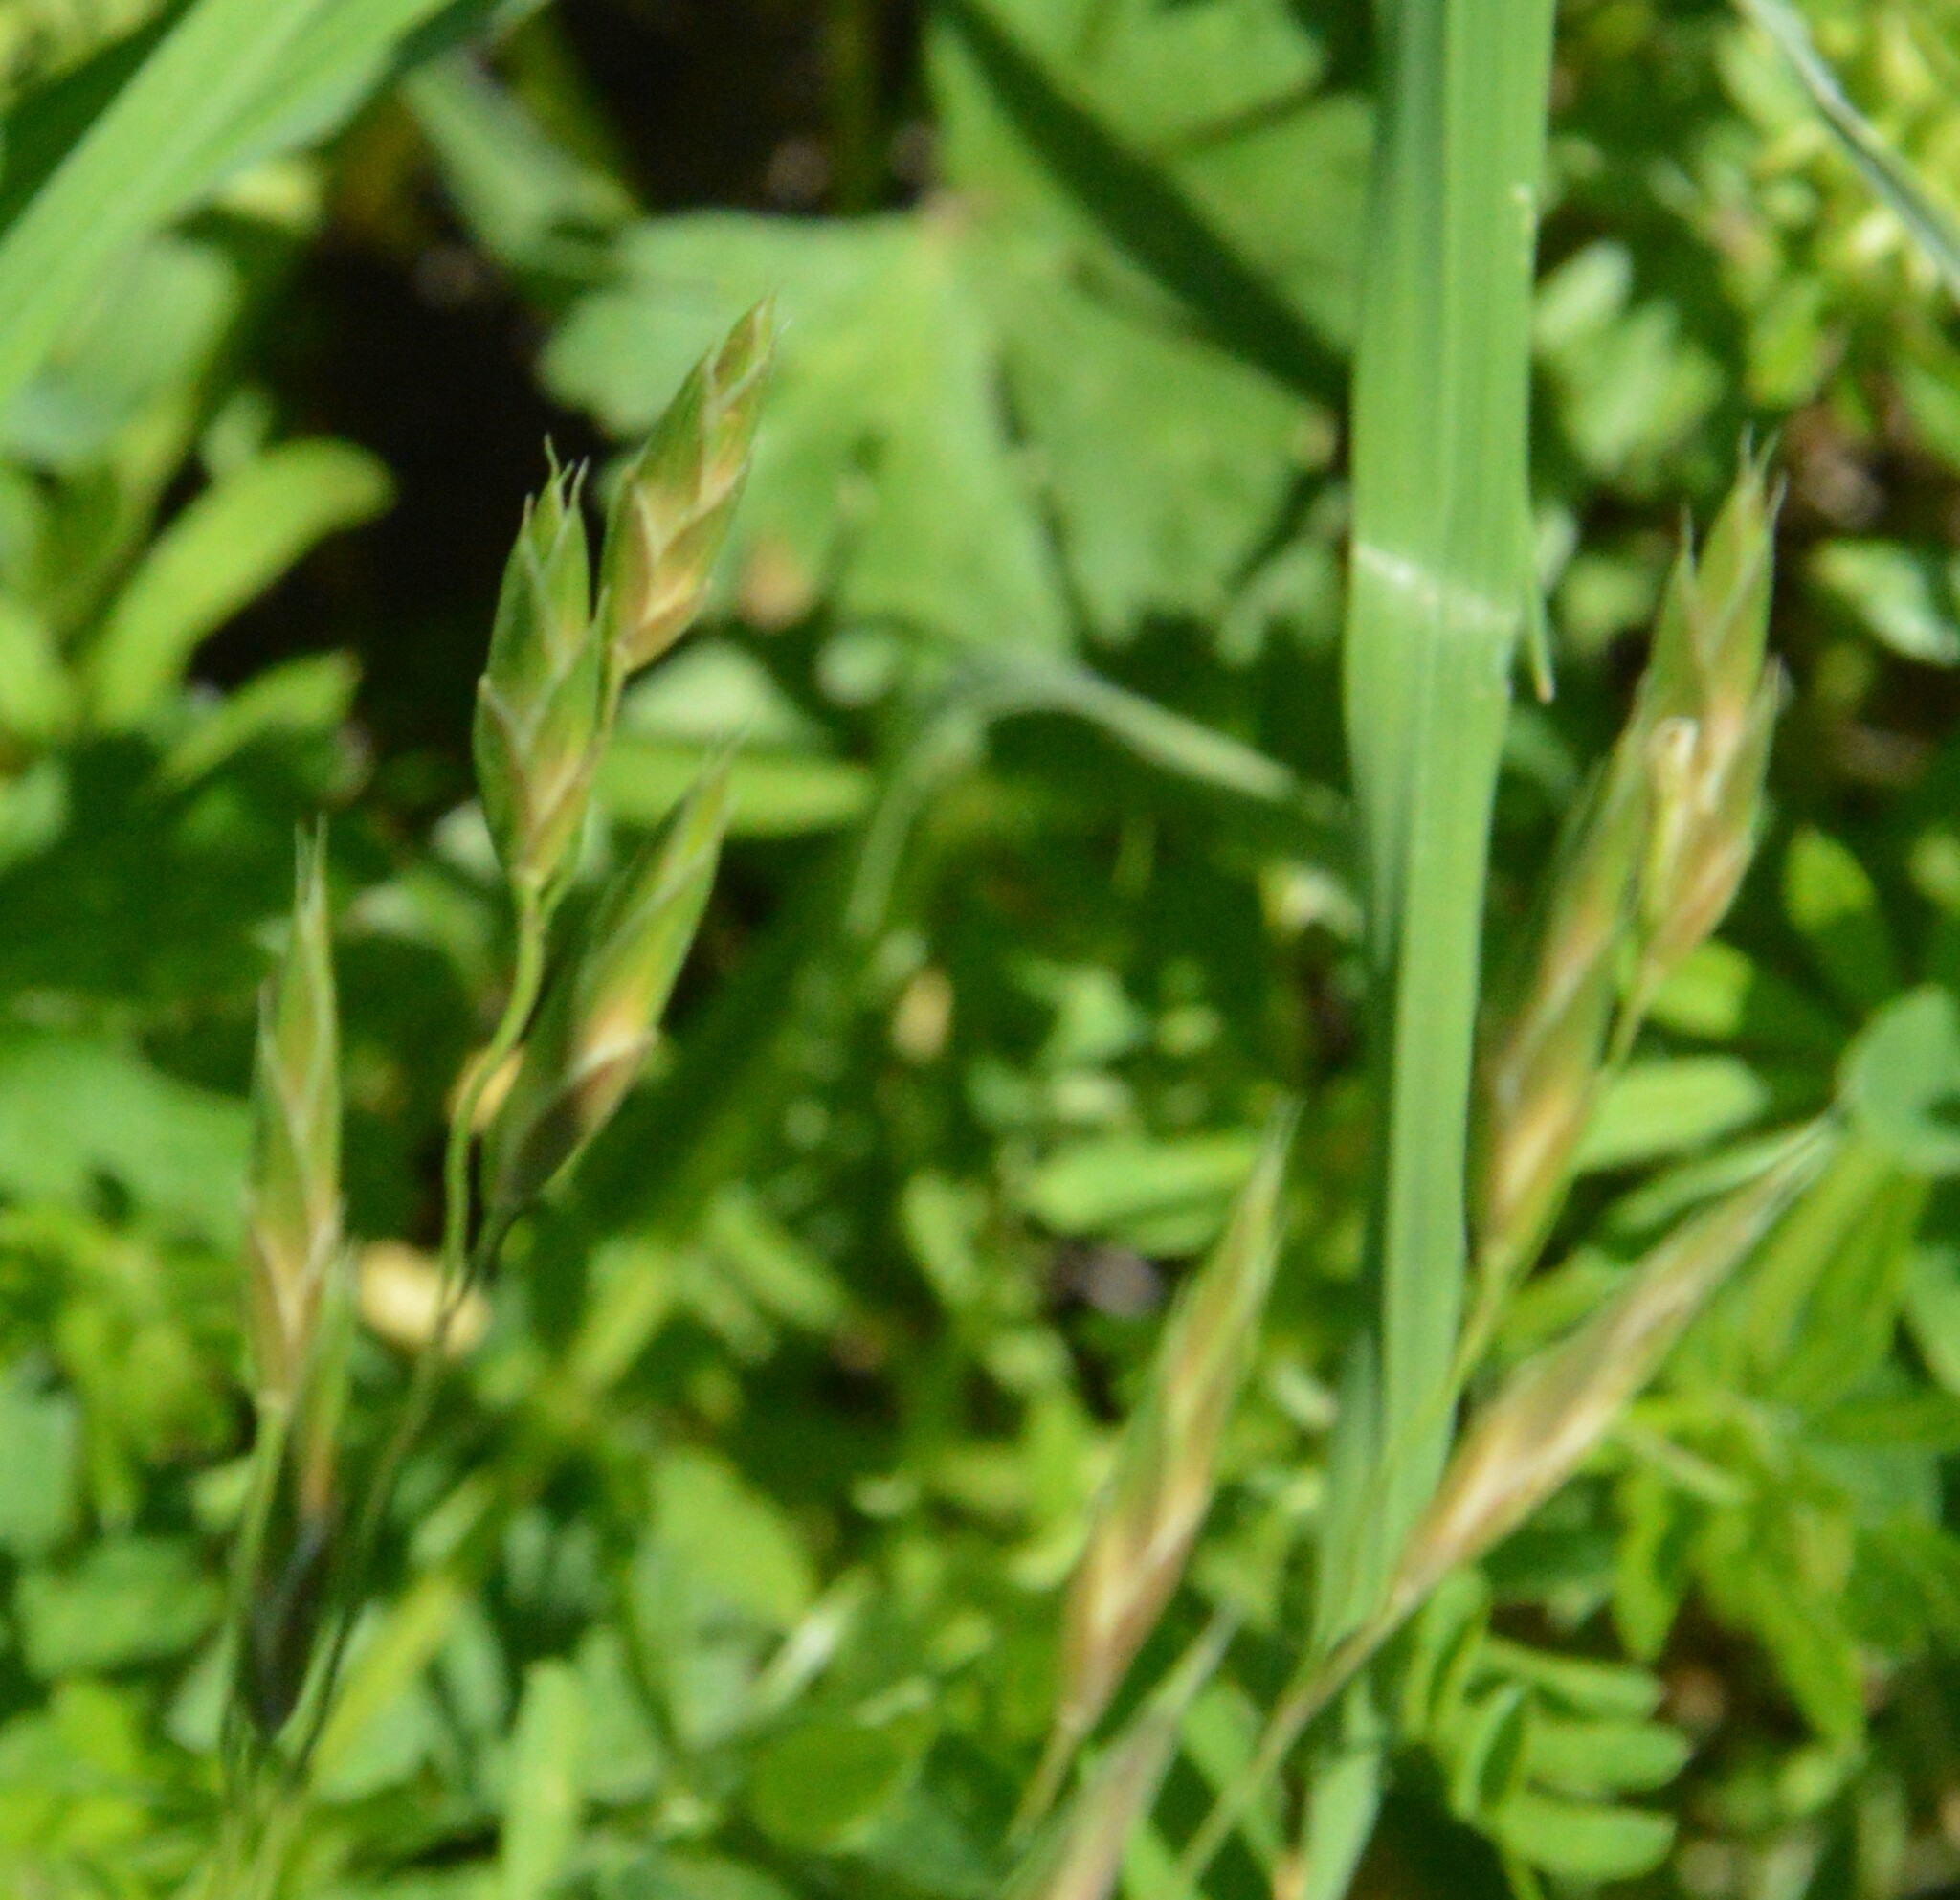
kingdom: Plantae
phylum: Tracheophyta
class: Liliopsida
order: Poales
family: Poaceae
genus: Bromus
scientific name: Bromus catharticus
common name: Rescuegrass
